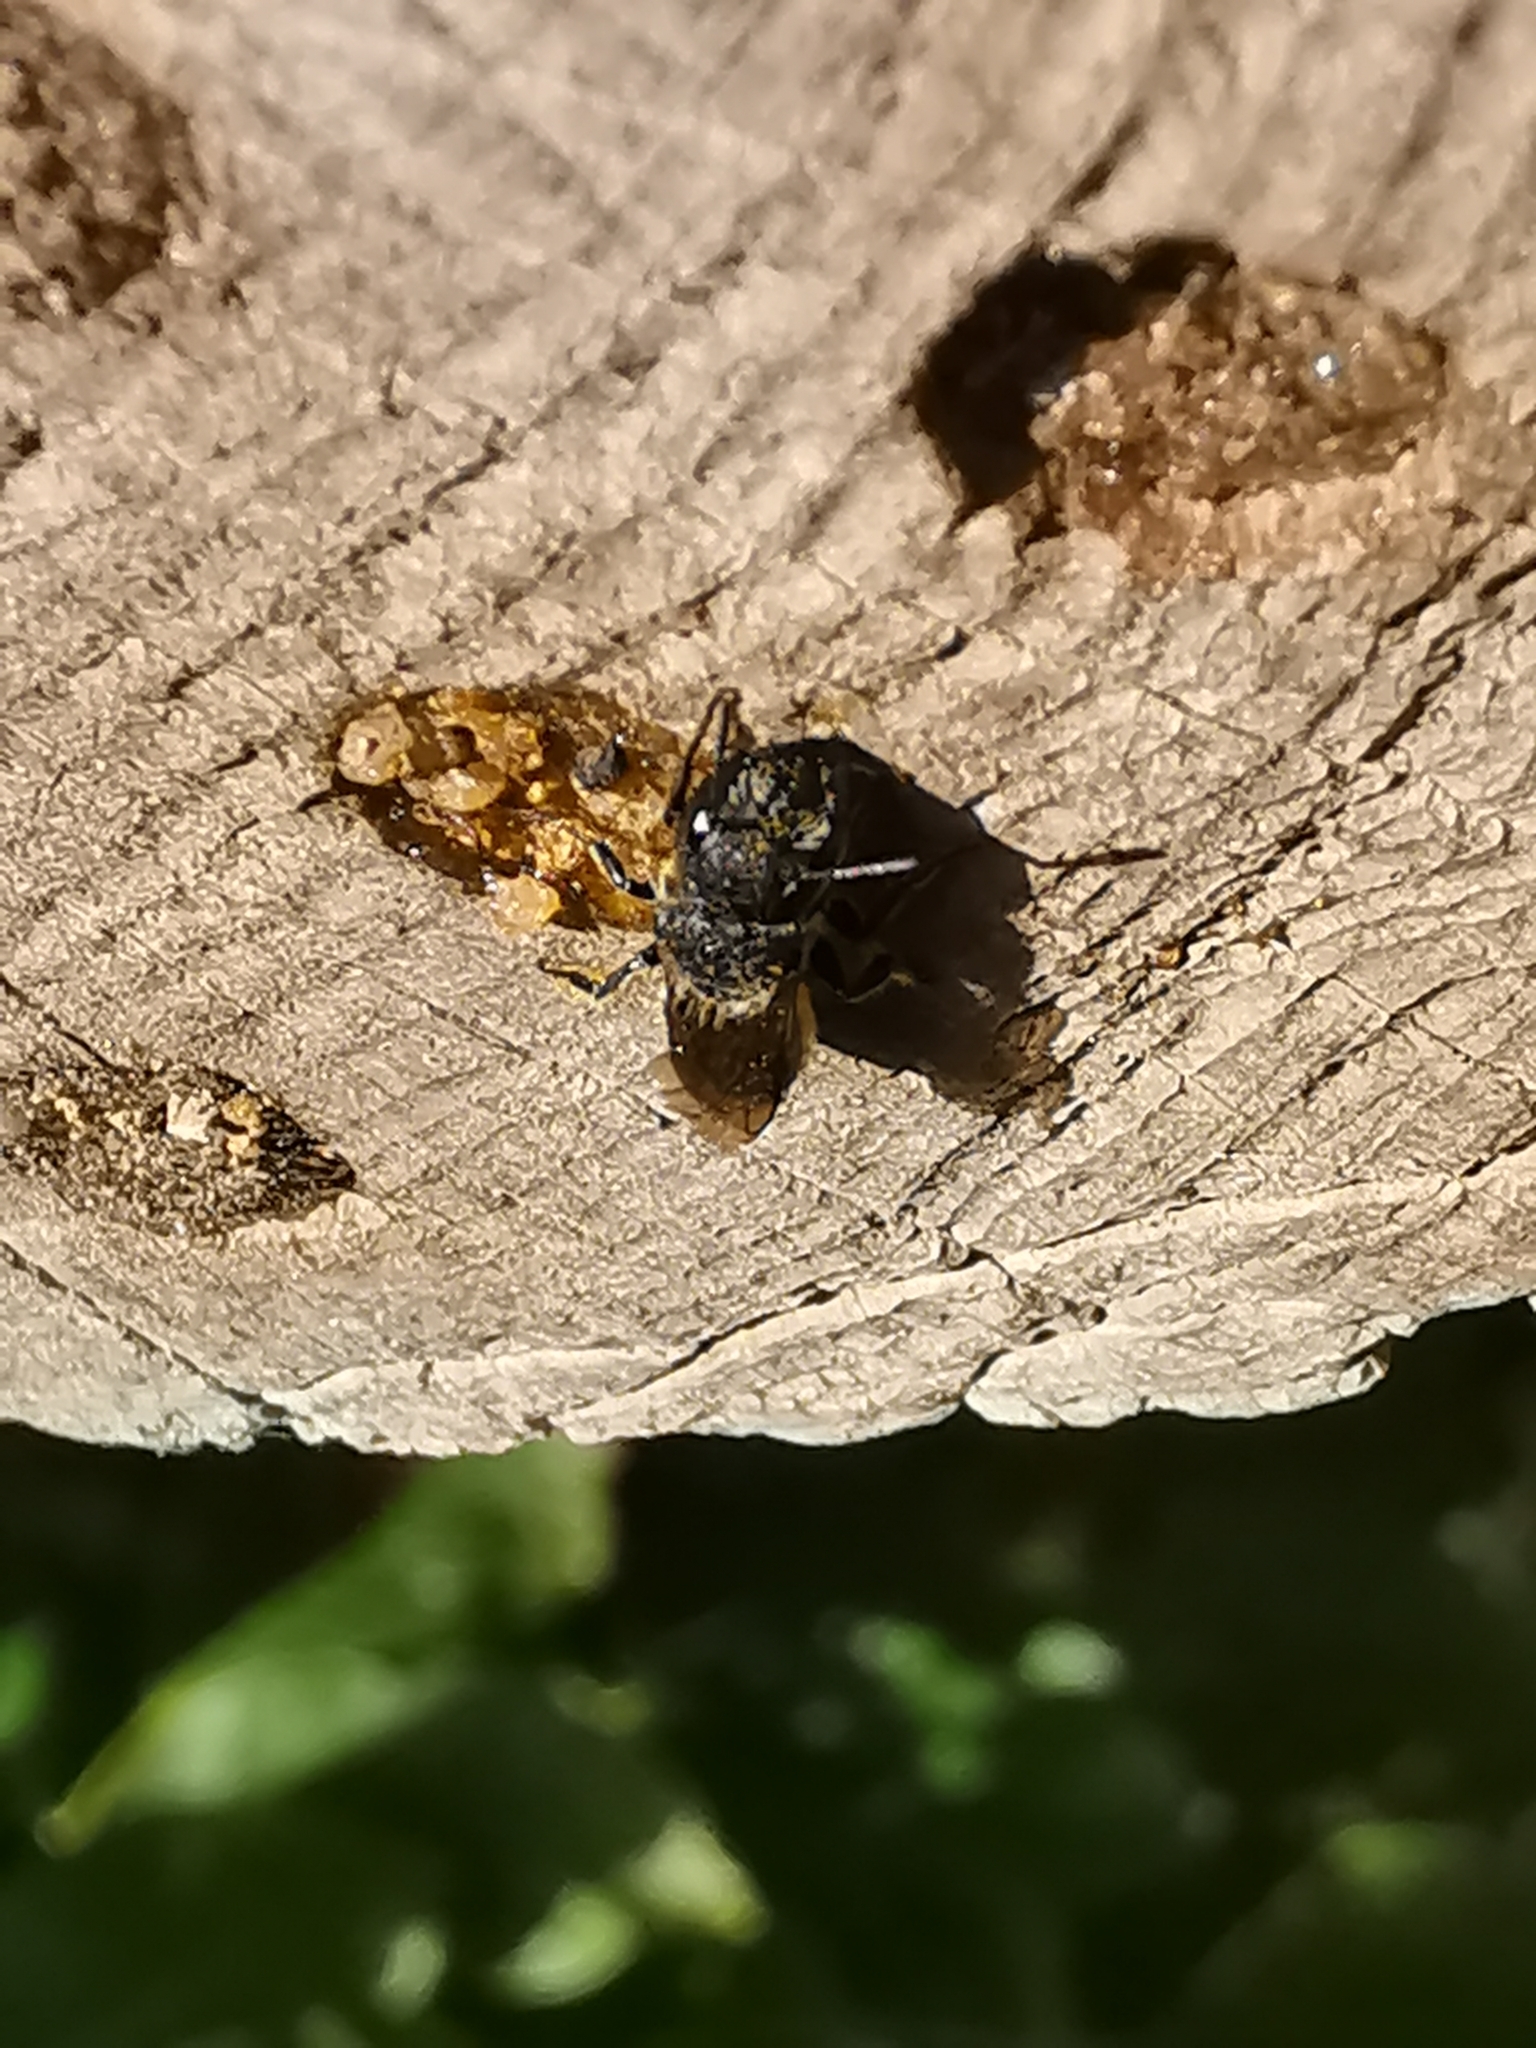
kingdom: Animalia
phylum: Arthropoda
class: Insecta
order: Hymenoptera
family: Megachilidae
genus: Osmia
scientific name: Osmia caerulescens
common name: Blue mason bee
